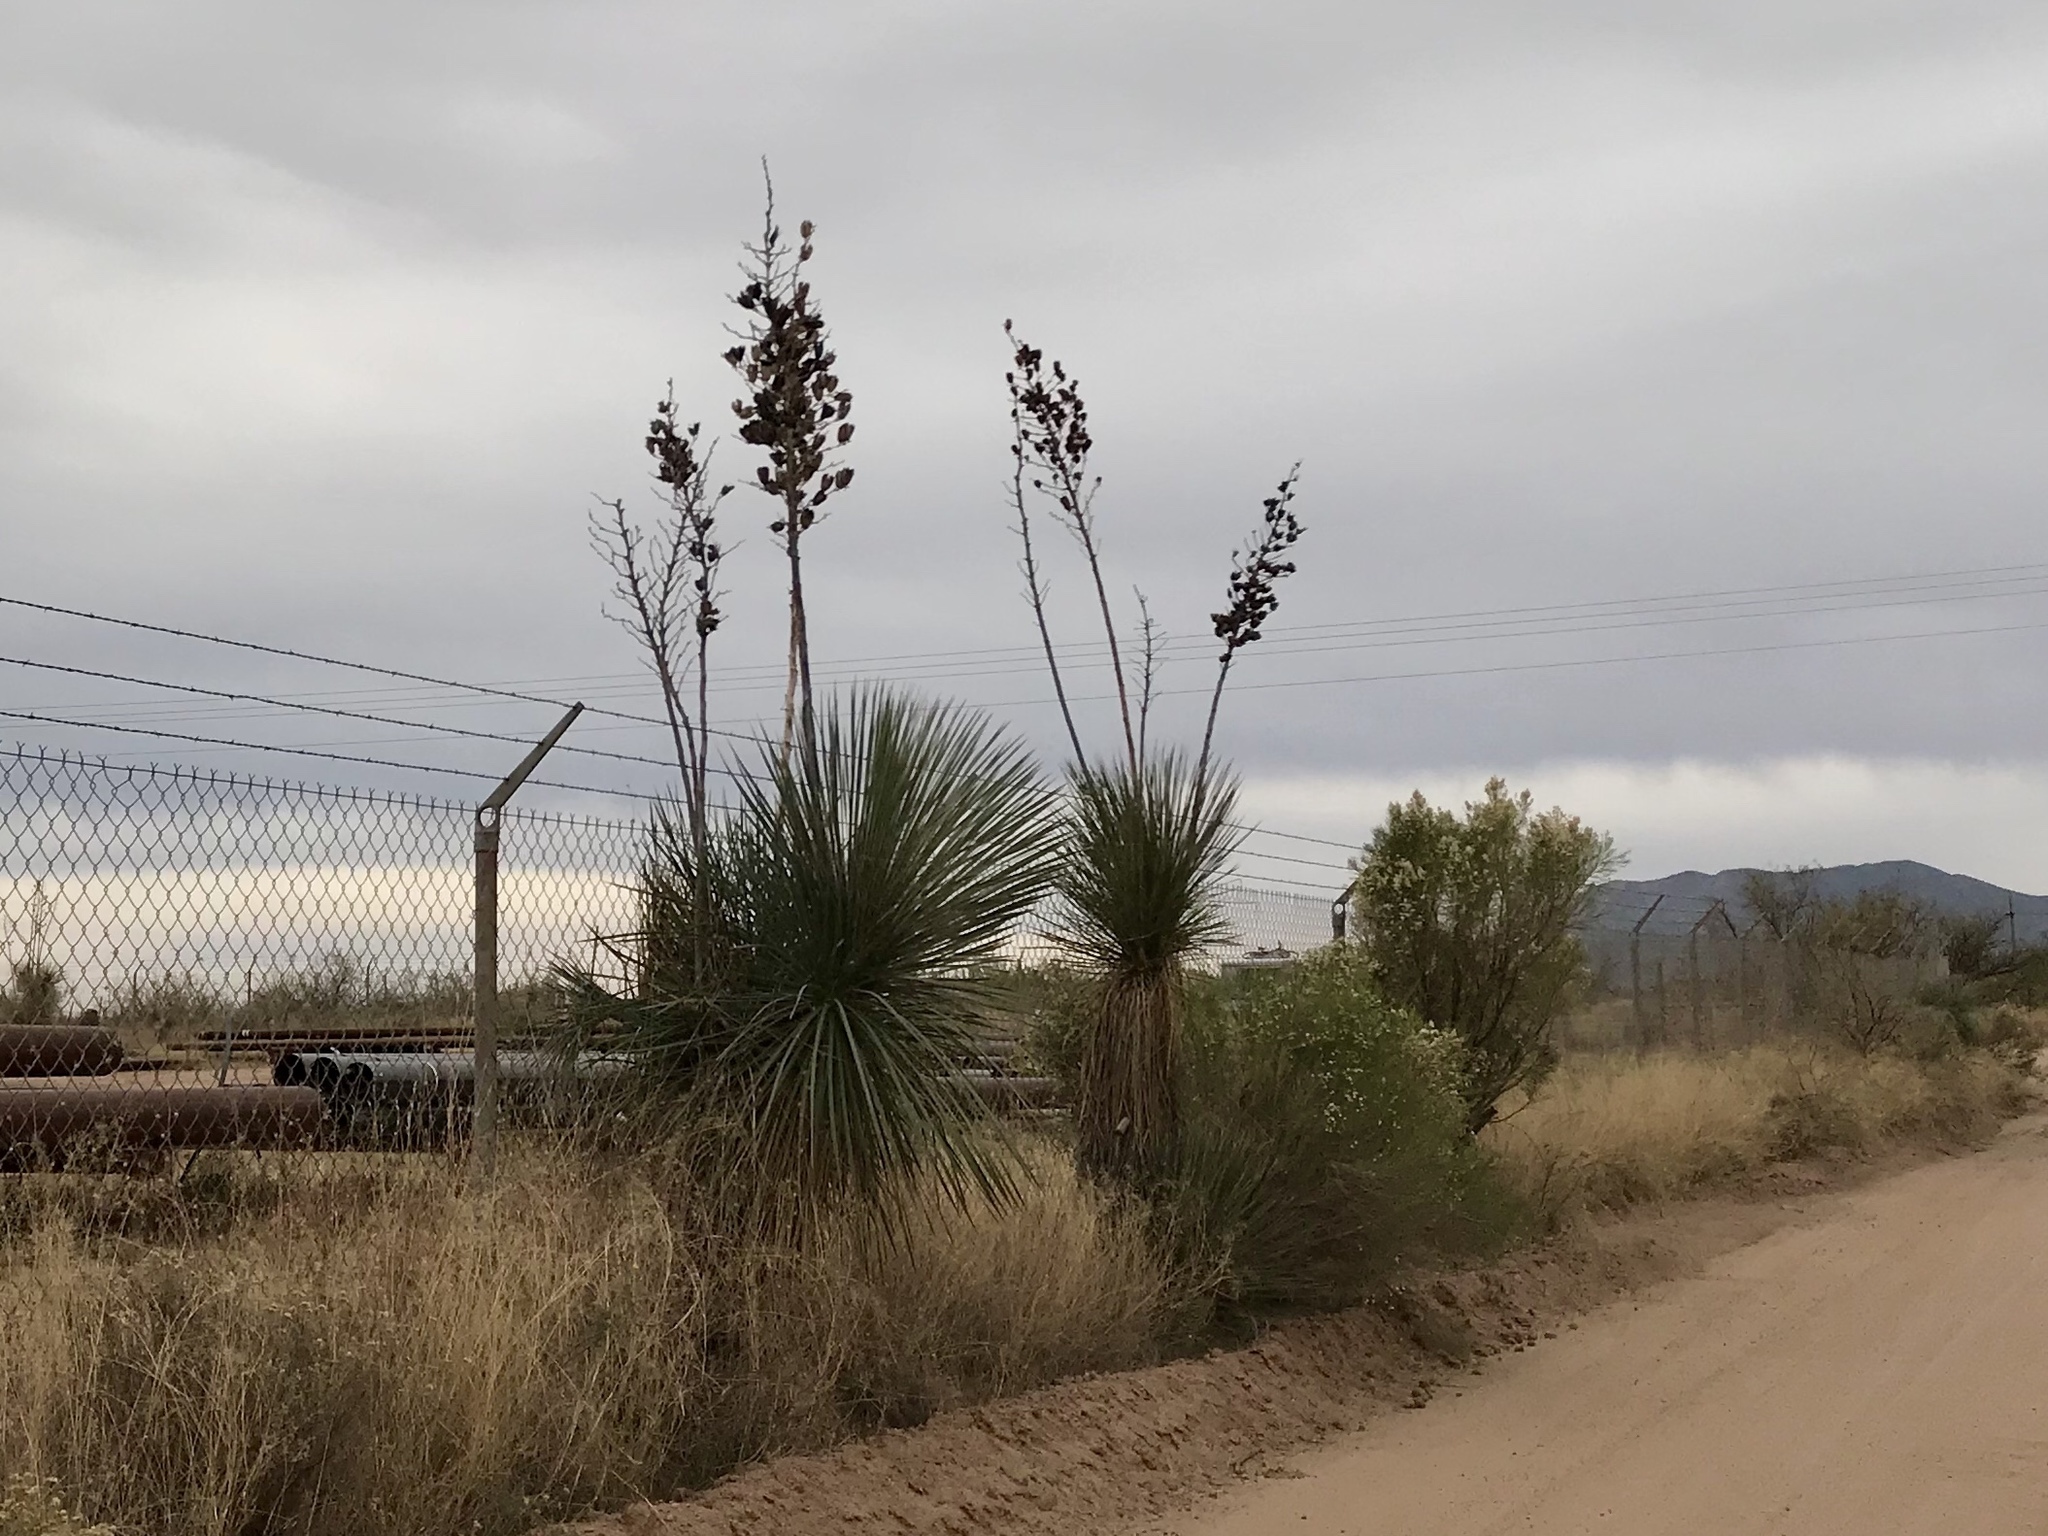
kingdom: Plantae
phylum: Tracheophyta
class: Liliopsida
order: Asparagales
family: Asparagaceae
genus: Yucca
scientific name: Yucca elata
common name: Palmella
